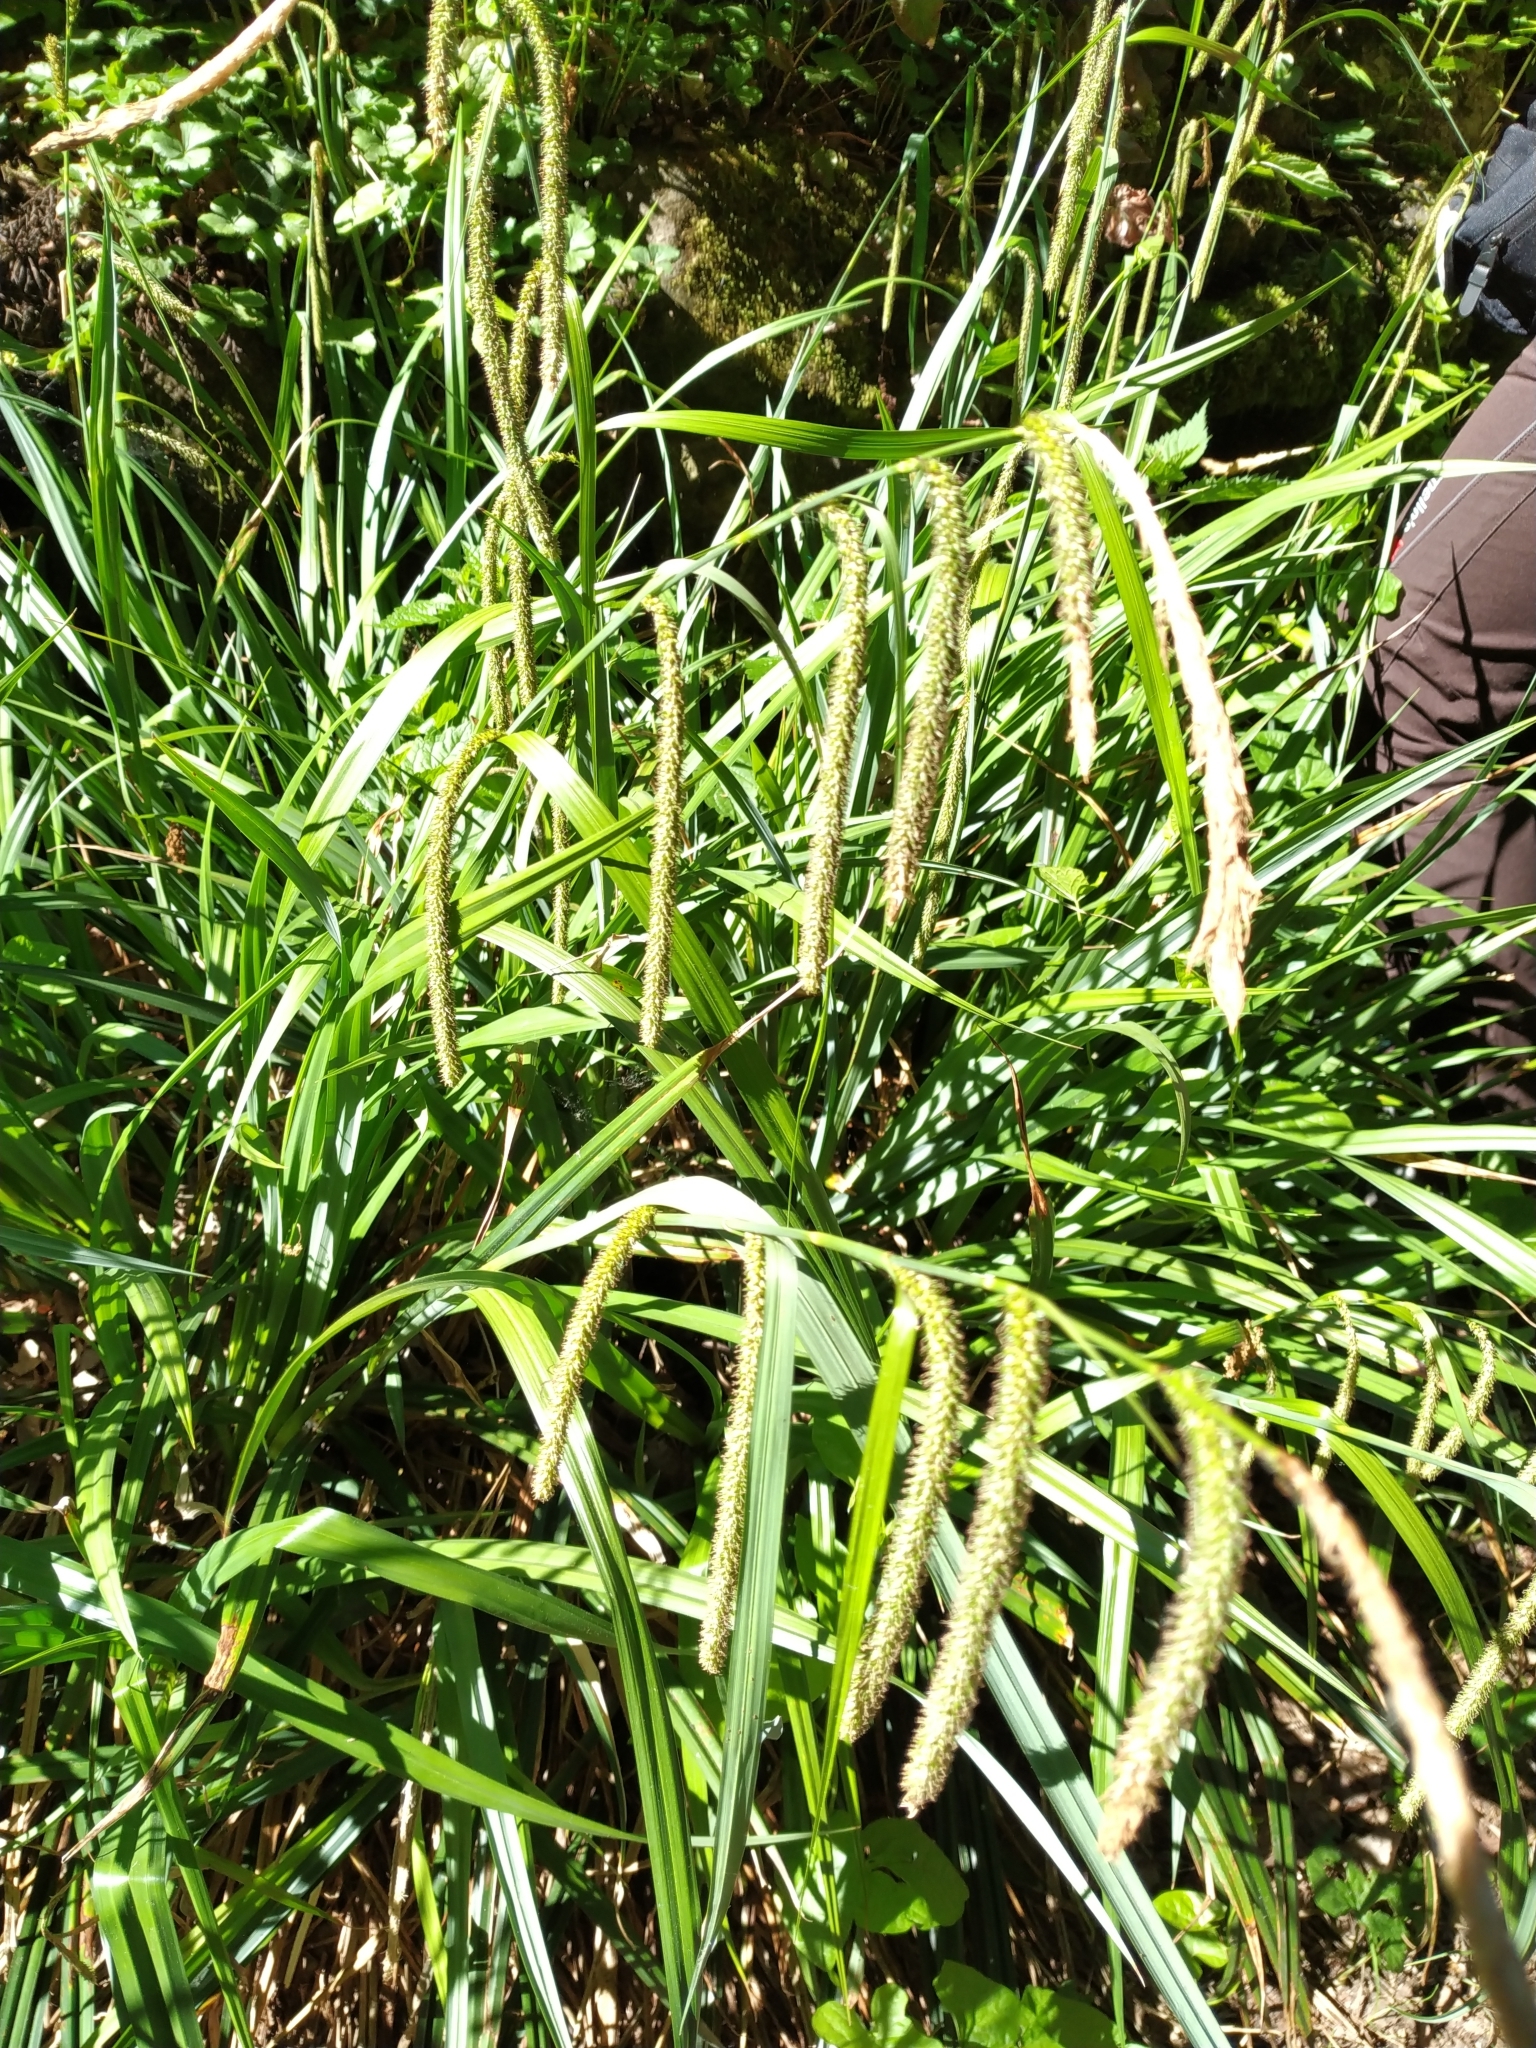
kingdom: Plantae
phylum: Tracheophyta
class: Liliopsida
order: Poales
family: Cyperaceae
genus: Carex
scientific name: Carex pendula
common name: Pendulous sedge
